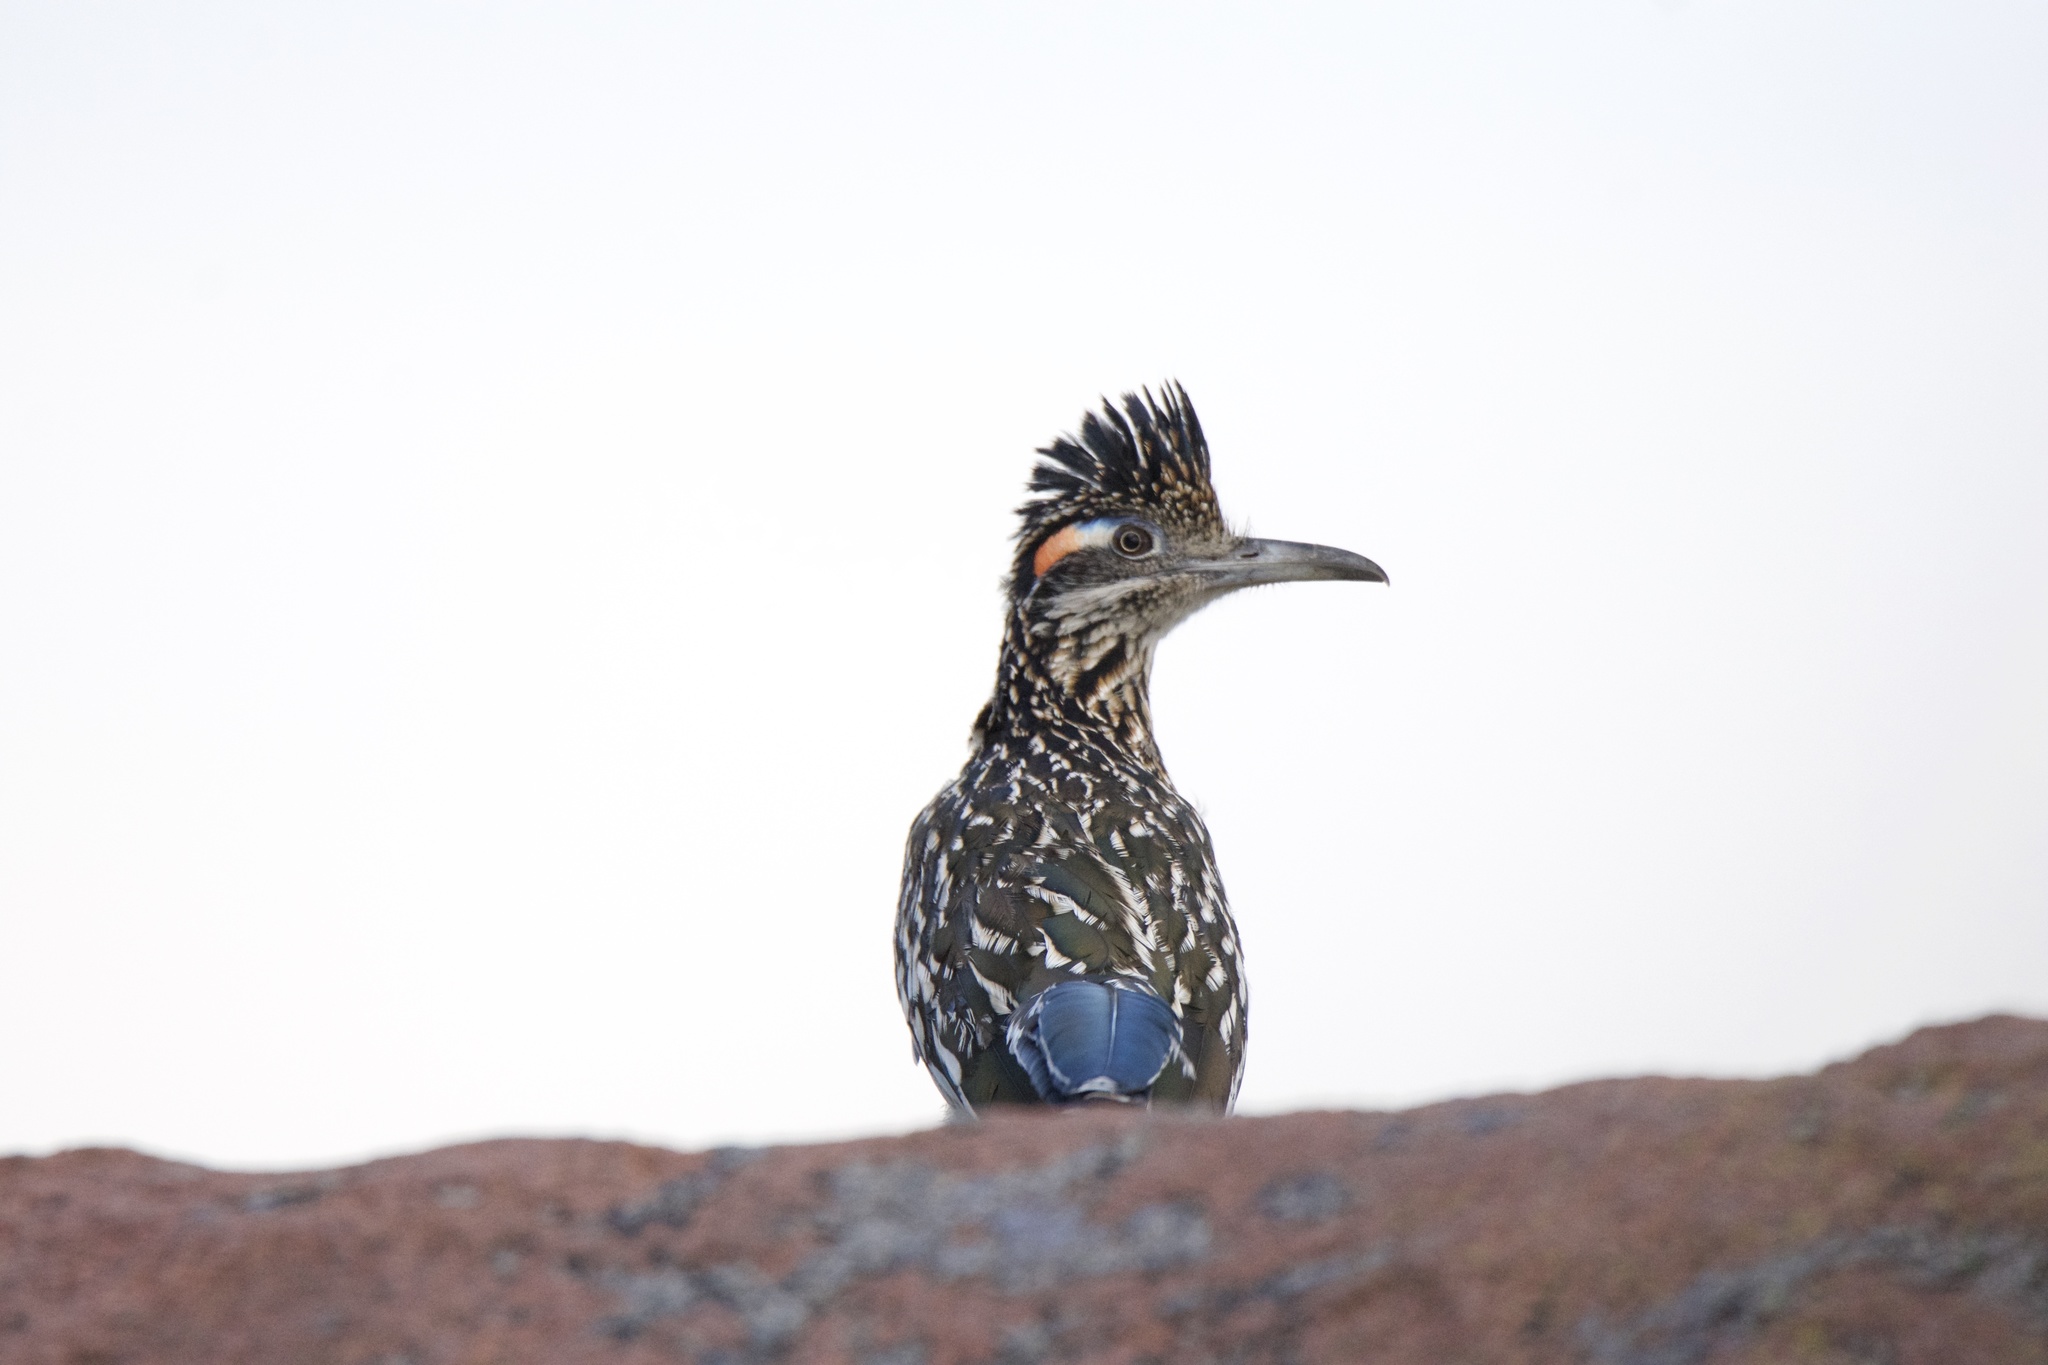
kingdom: Animalia
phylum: Chordata
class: Aves
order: Cuculiformes
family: Cuculidae
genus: Geococcyx
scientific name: Geococcyx californianus
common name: Greater roadrunner
